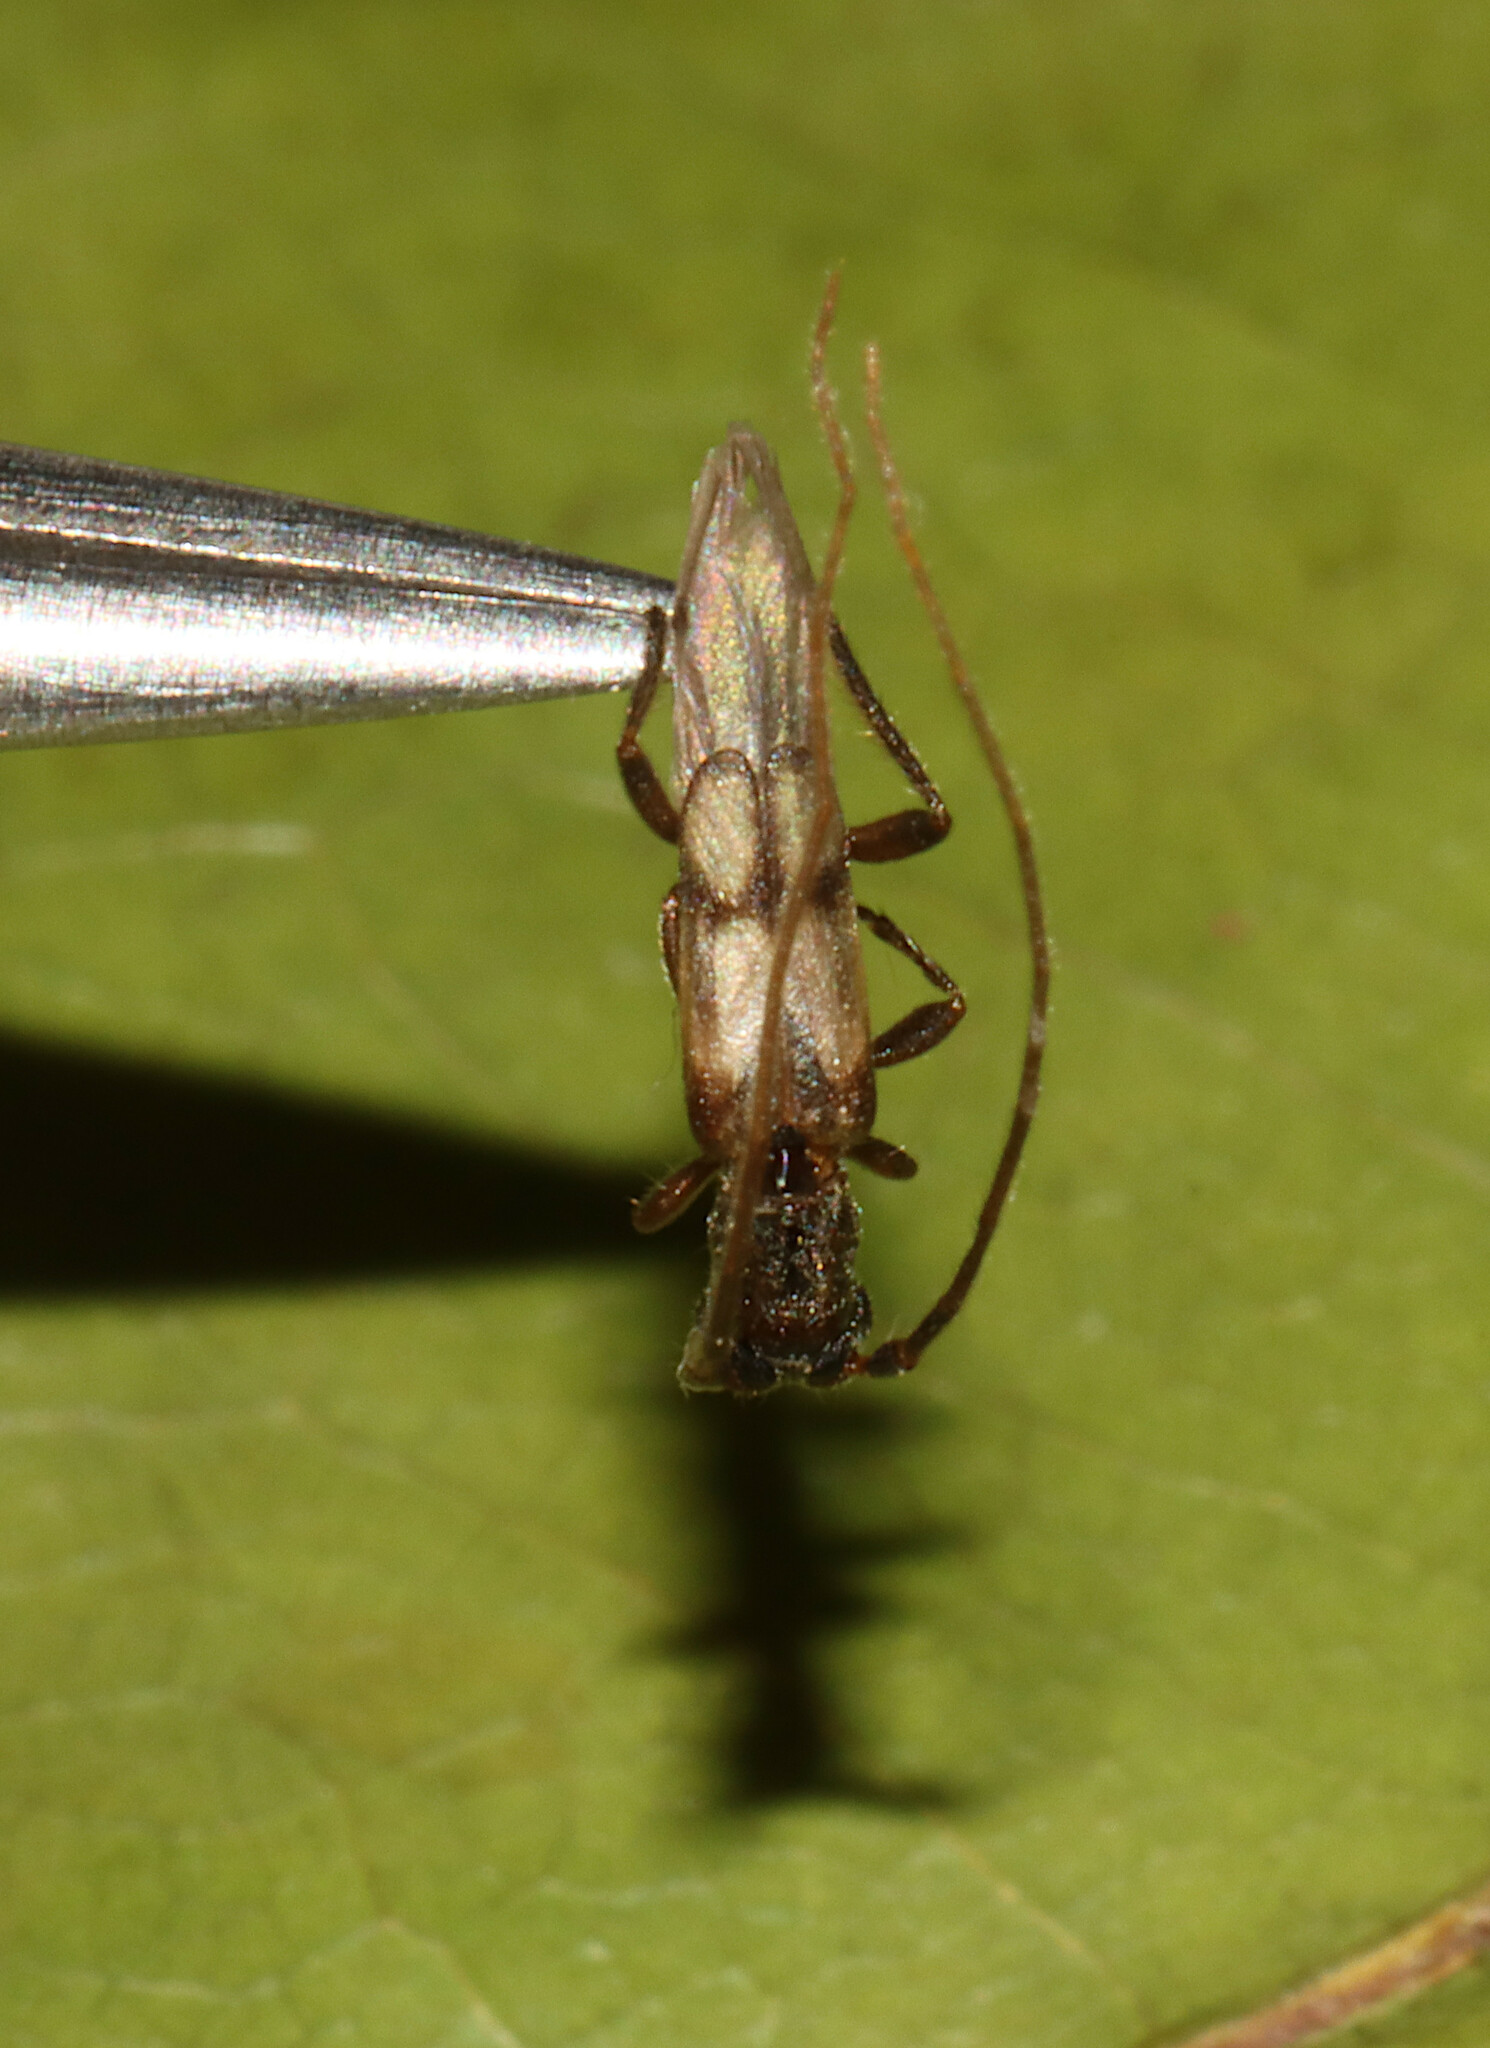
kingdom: Animalia
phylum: Arthropoda
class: Insecta
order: Coleoptera
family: Cerambycidae
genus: Methia
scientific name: Methia necydalea
